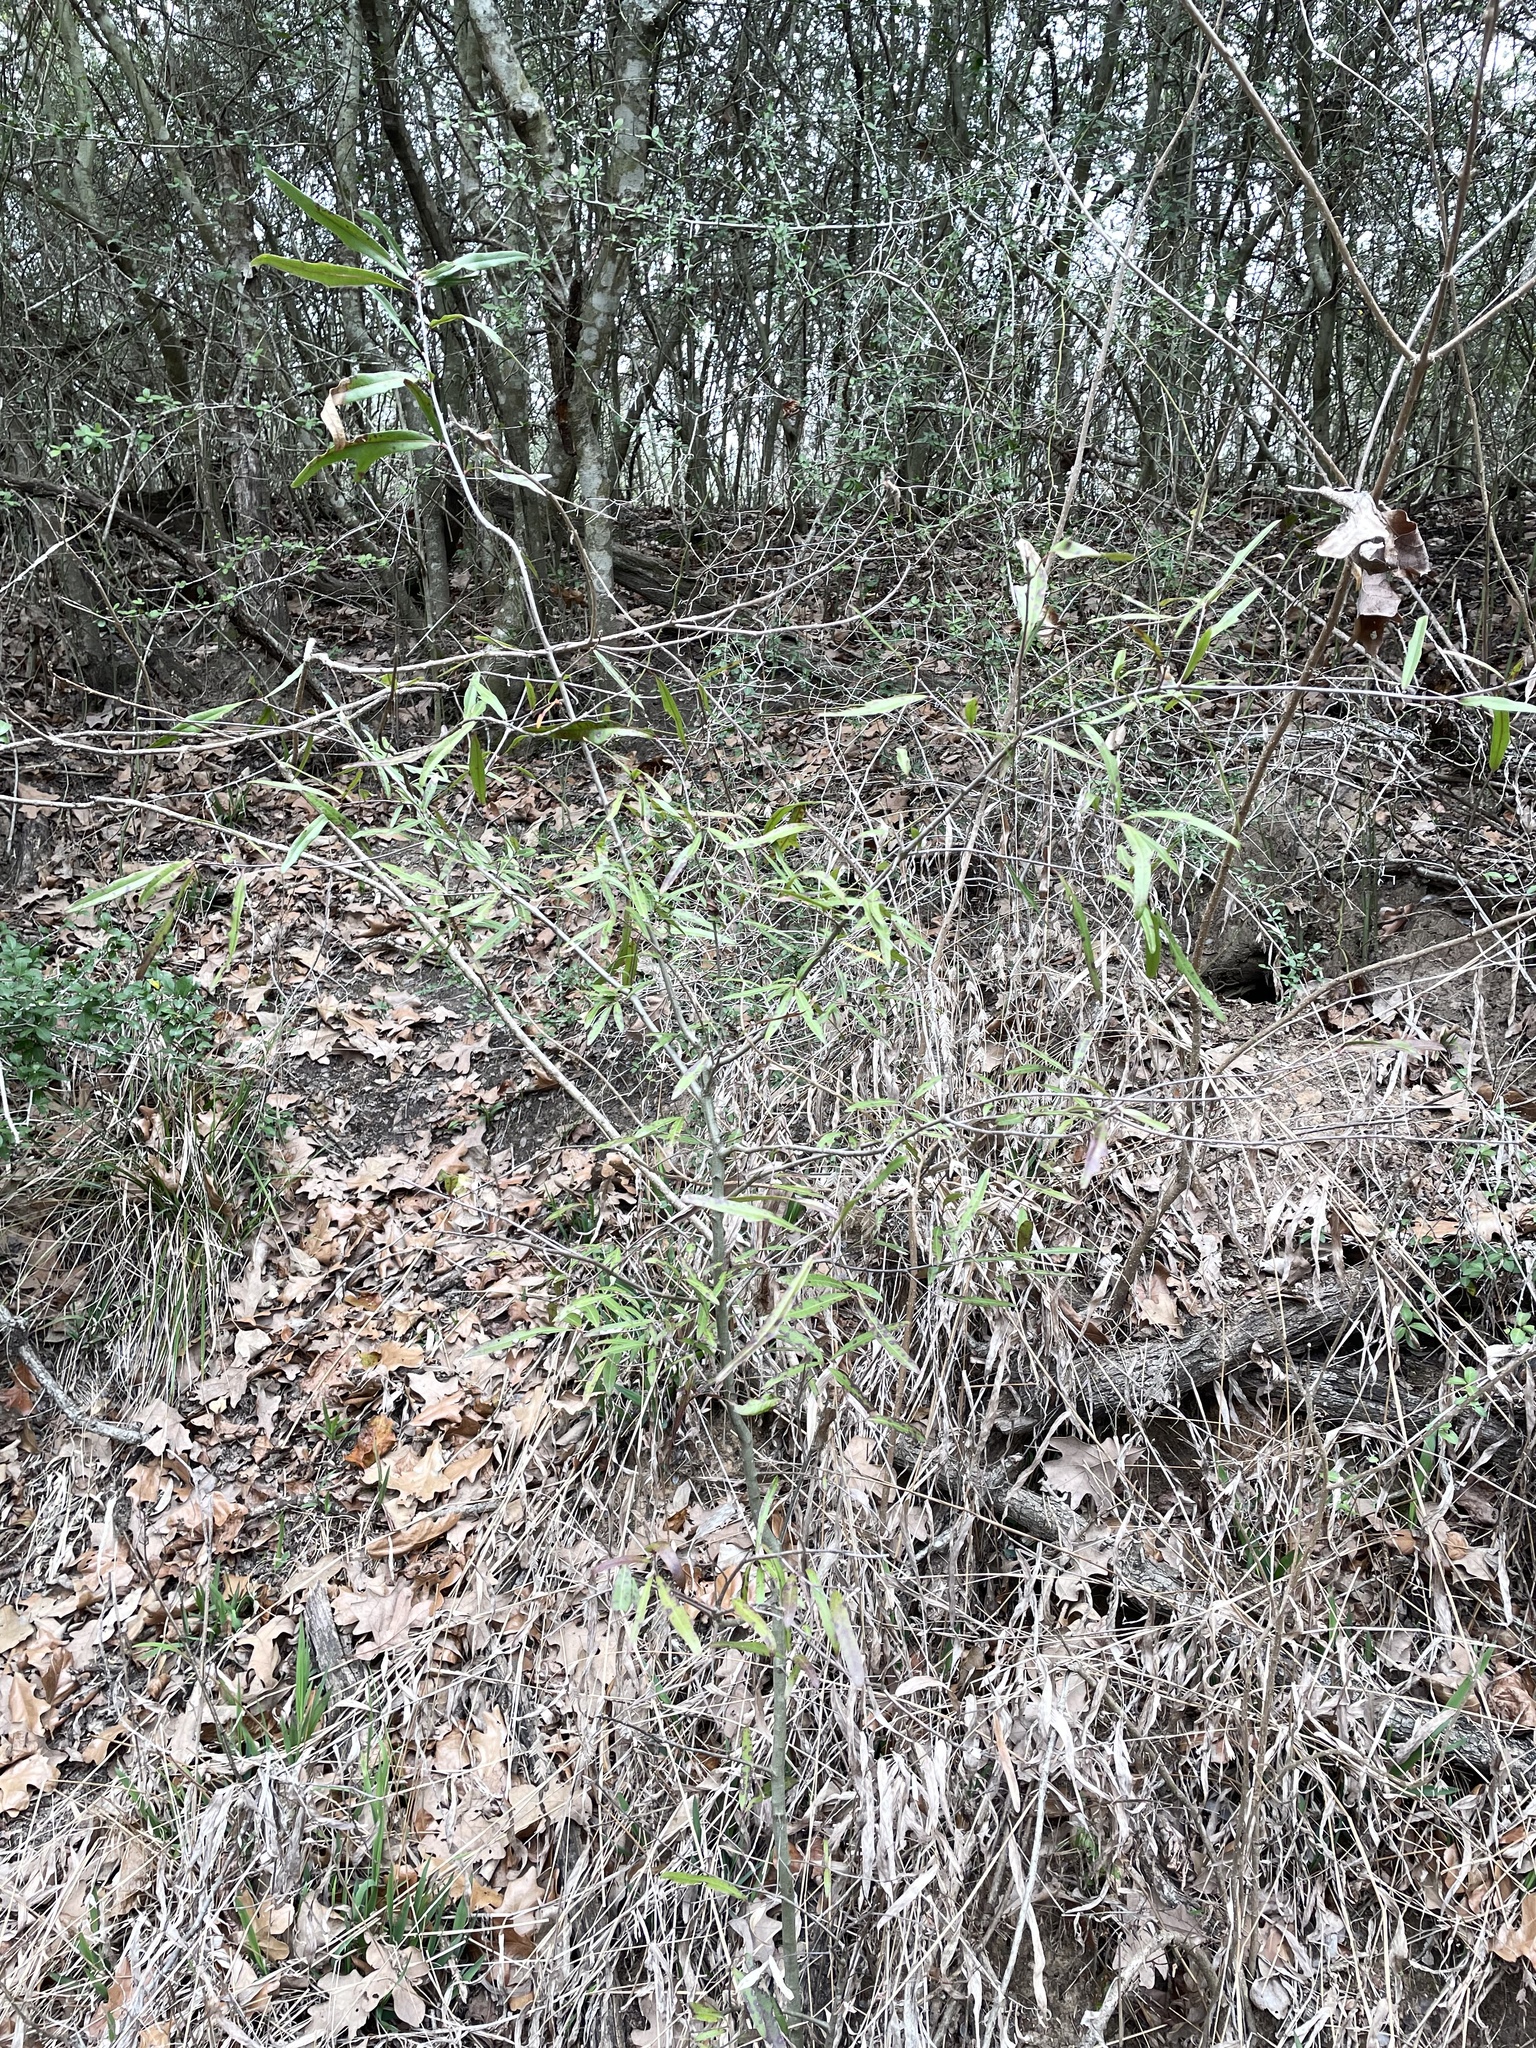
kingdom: Plantae
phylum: Tracheophyta
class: Magnoliopsida
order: Fagales
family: Fagaceae
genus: Quercus
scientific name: Quercus phellos
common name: Willow oak
